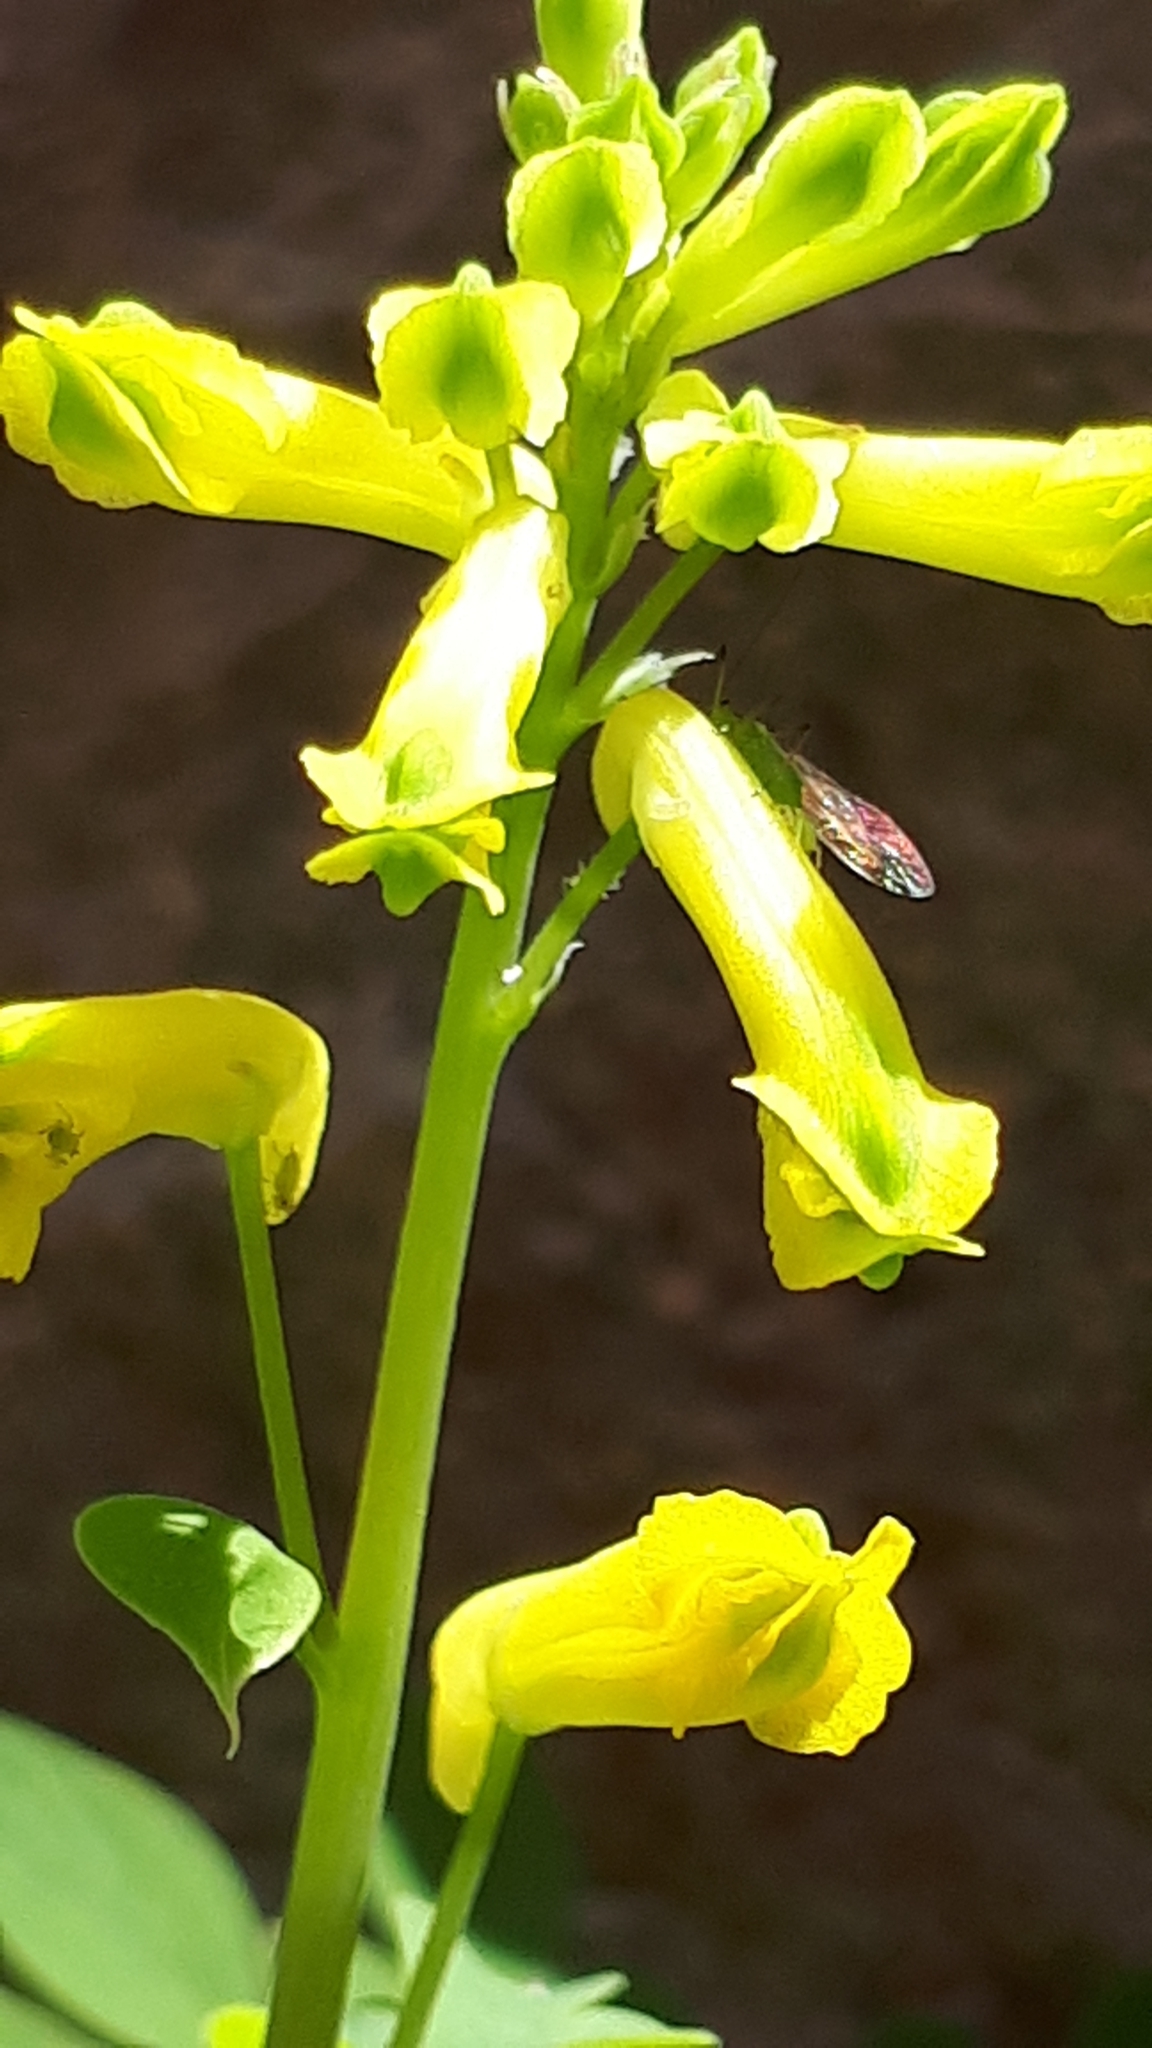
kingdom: Plantae
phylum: Tracheophyta
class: Magnoliopsida
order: Ranunculales
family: Papaveraceae
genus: Pseudofumaria
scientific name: Pseudofumaria lutea
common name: Yellow corydalis
